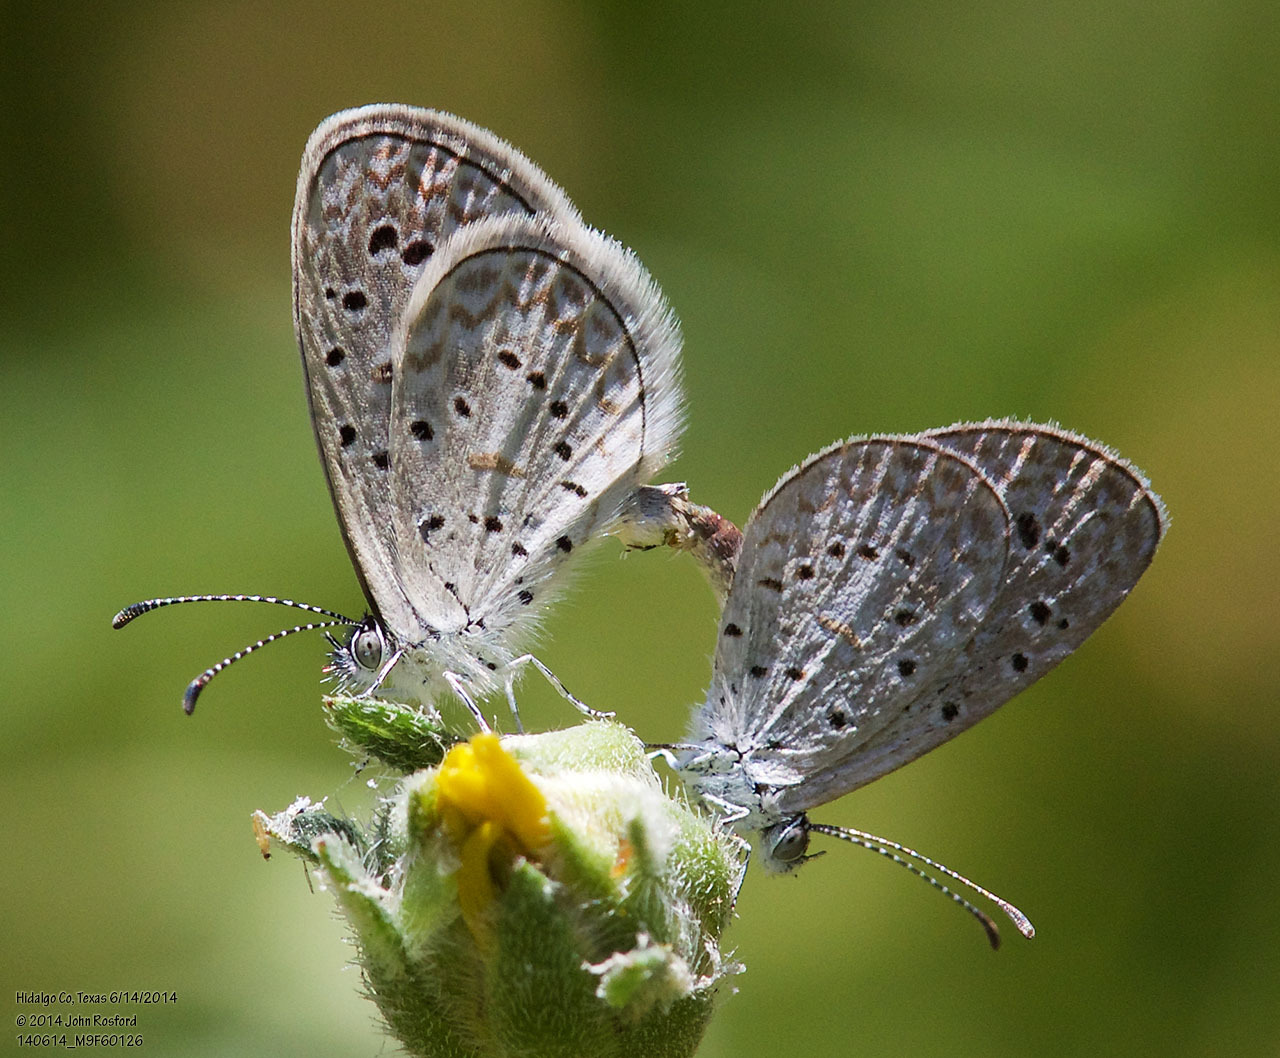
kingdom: Animalia
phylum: Arthropoda
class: Insecta
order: Lepidoptera
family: Lycaenidae
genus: Lycaena
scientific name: Lycaena cyna
